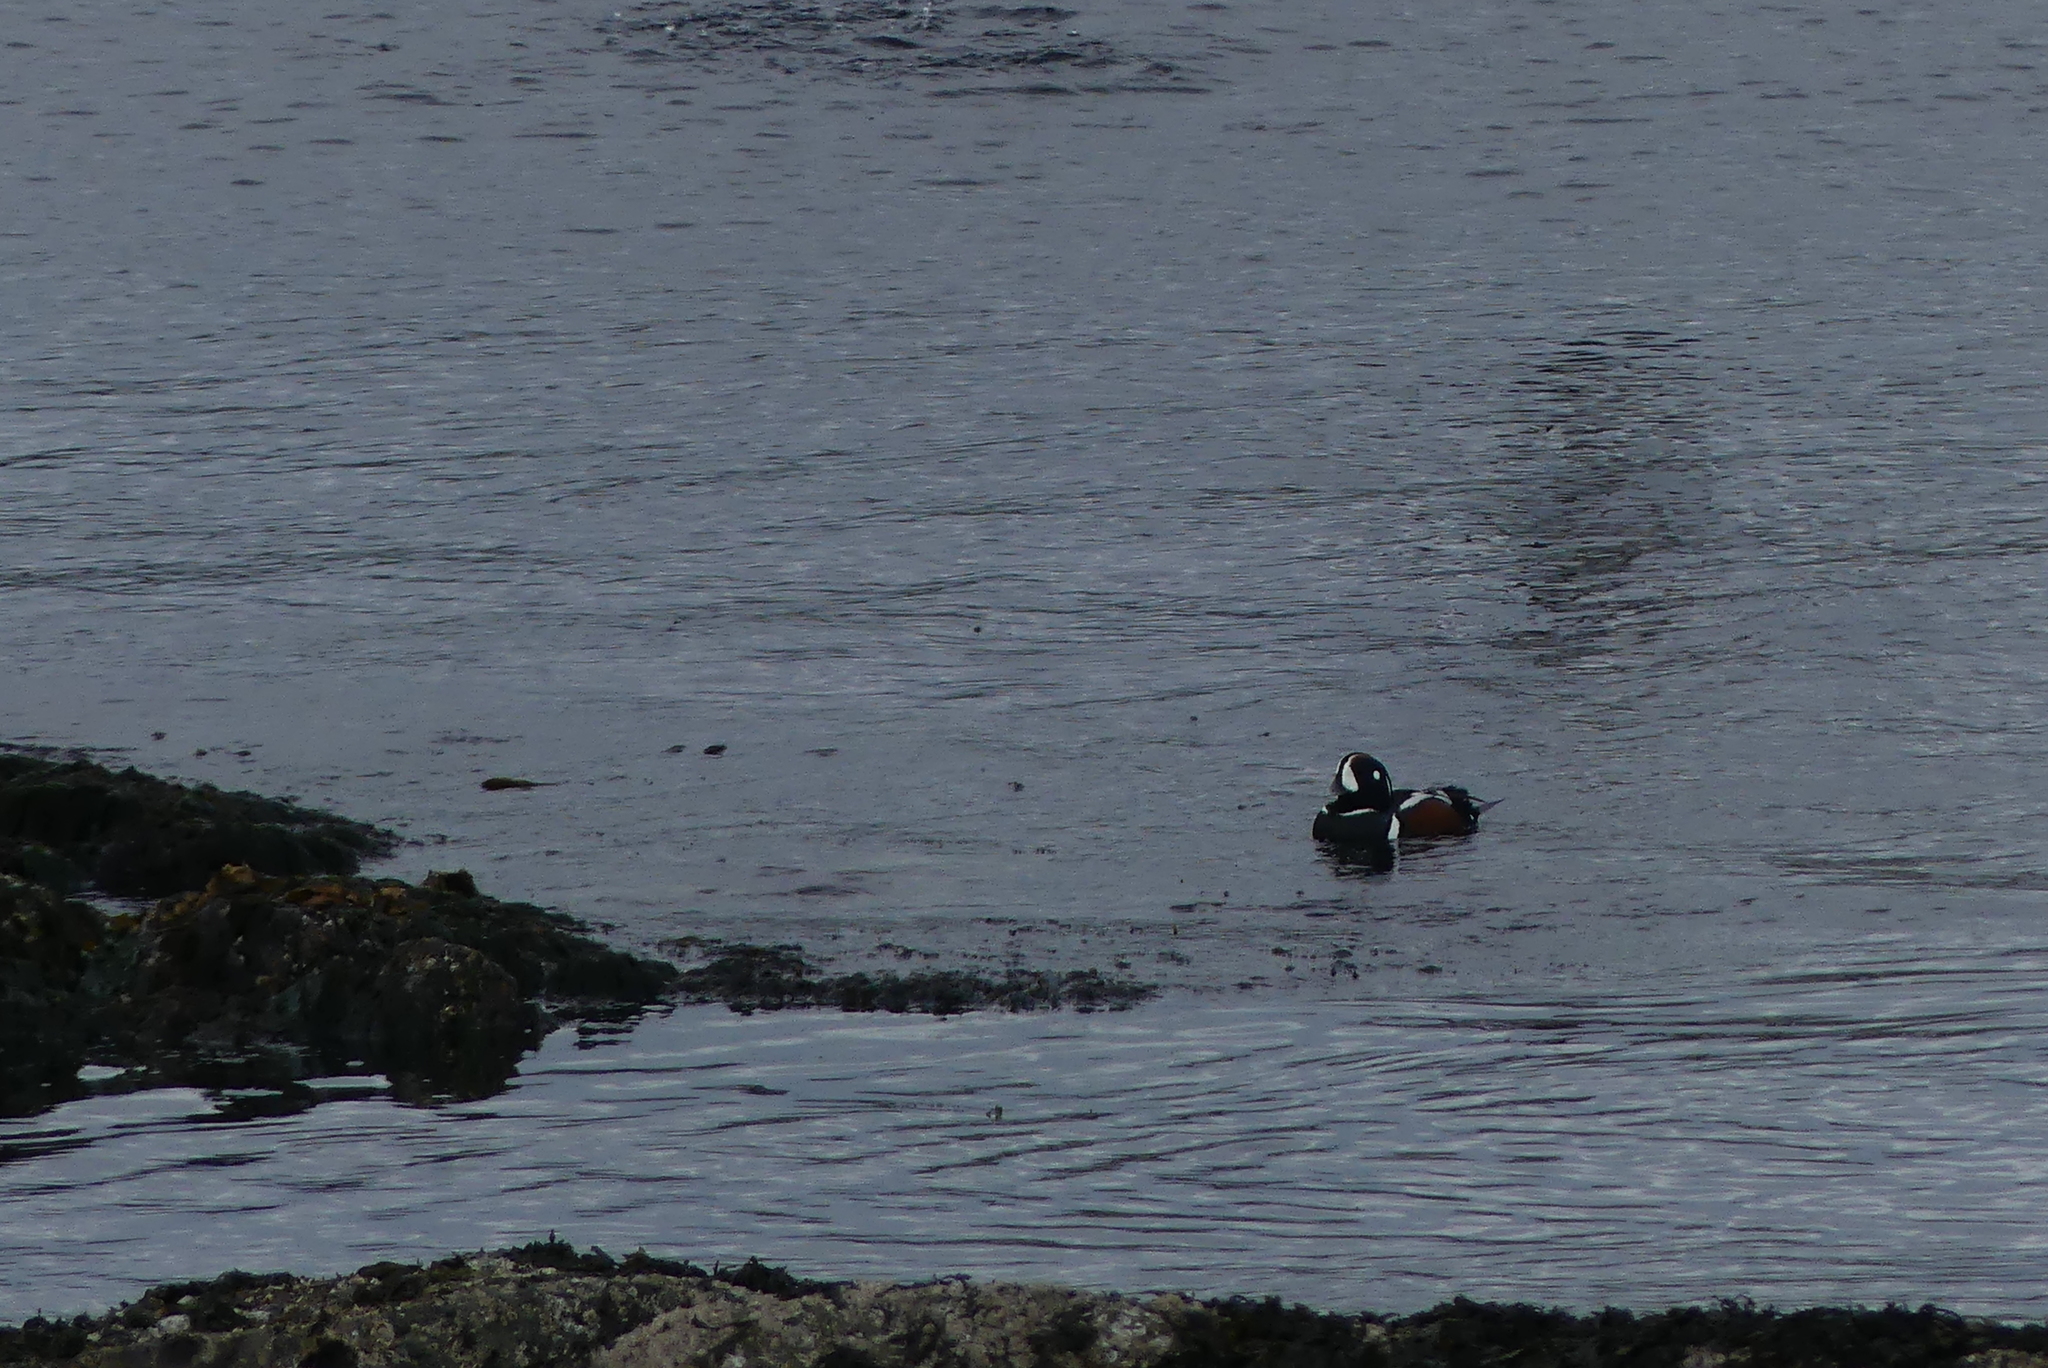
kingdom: Animalia
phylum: Chordata
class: Aves
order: Anseriformes
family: Anatidae
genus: Histrionicus
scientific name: Histrionicus histrionicus
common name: Harlequin duck
